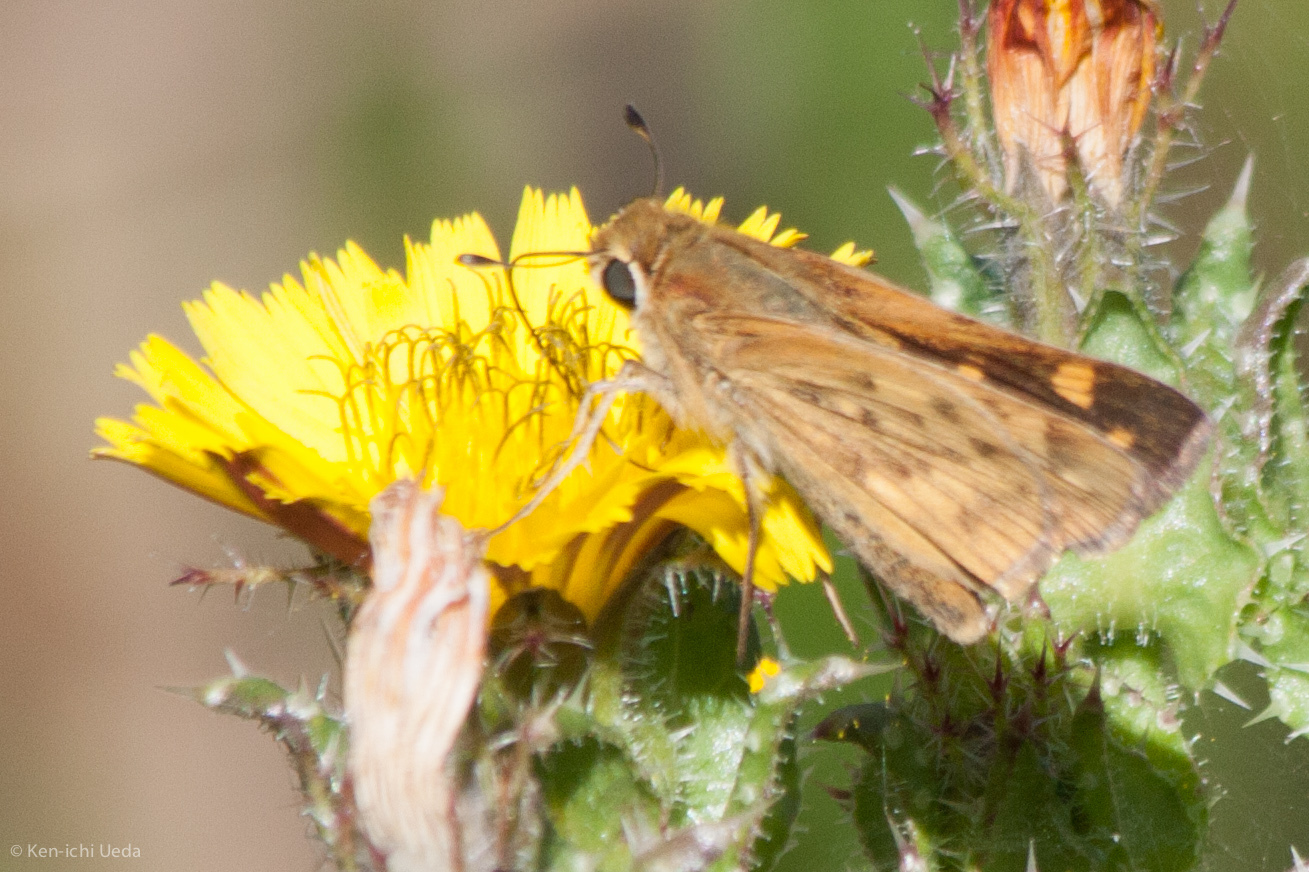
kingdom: Animalia
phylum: Arthropoda
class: Insecta
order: Lepidoptera
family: Hesperiidae
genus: Hylephila
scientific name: Hylephila phyleus
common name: Fiery skipper
